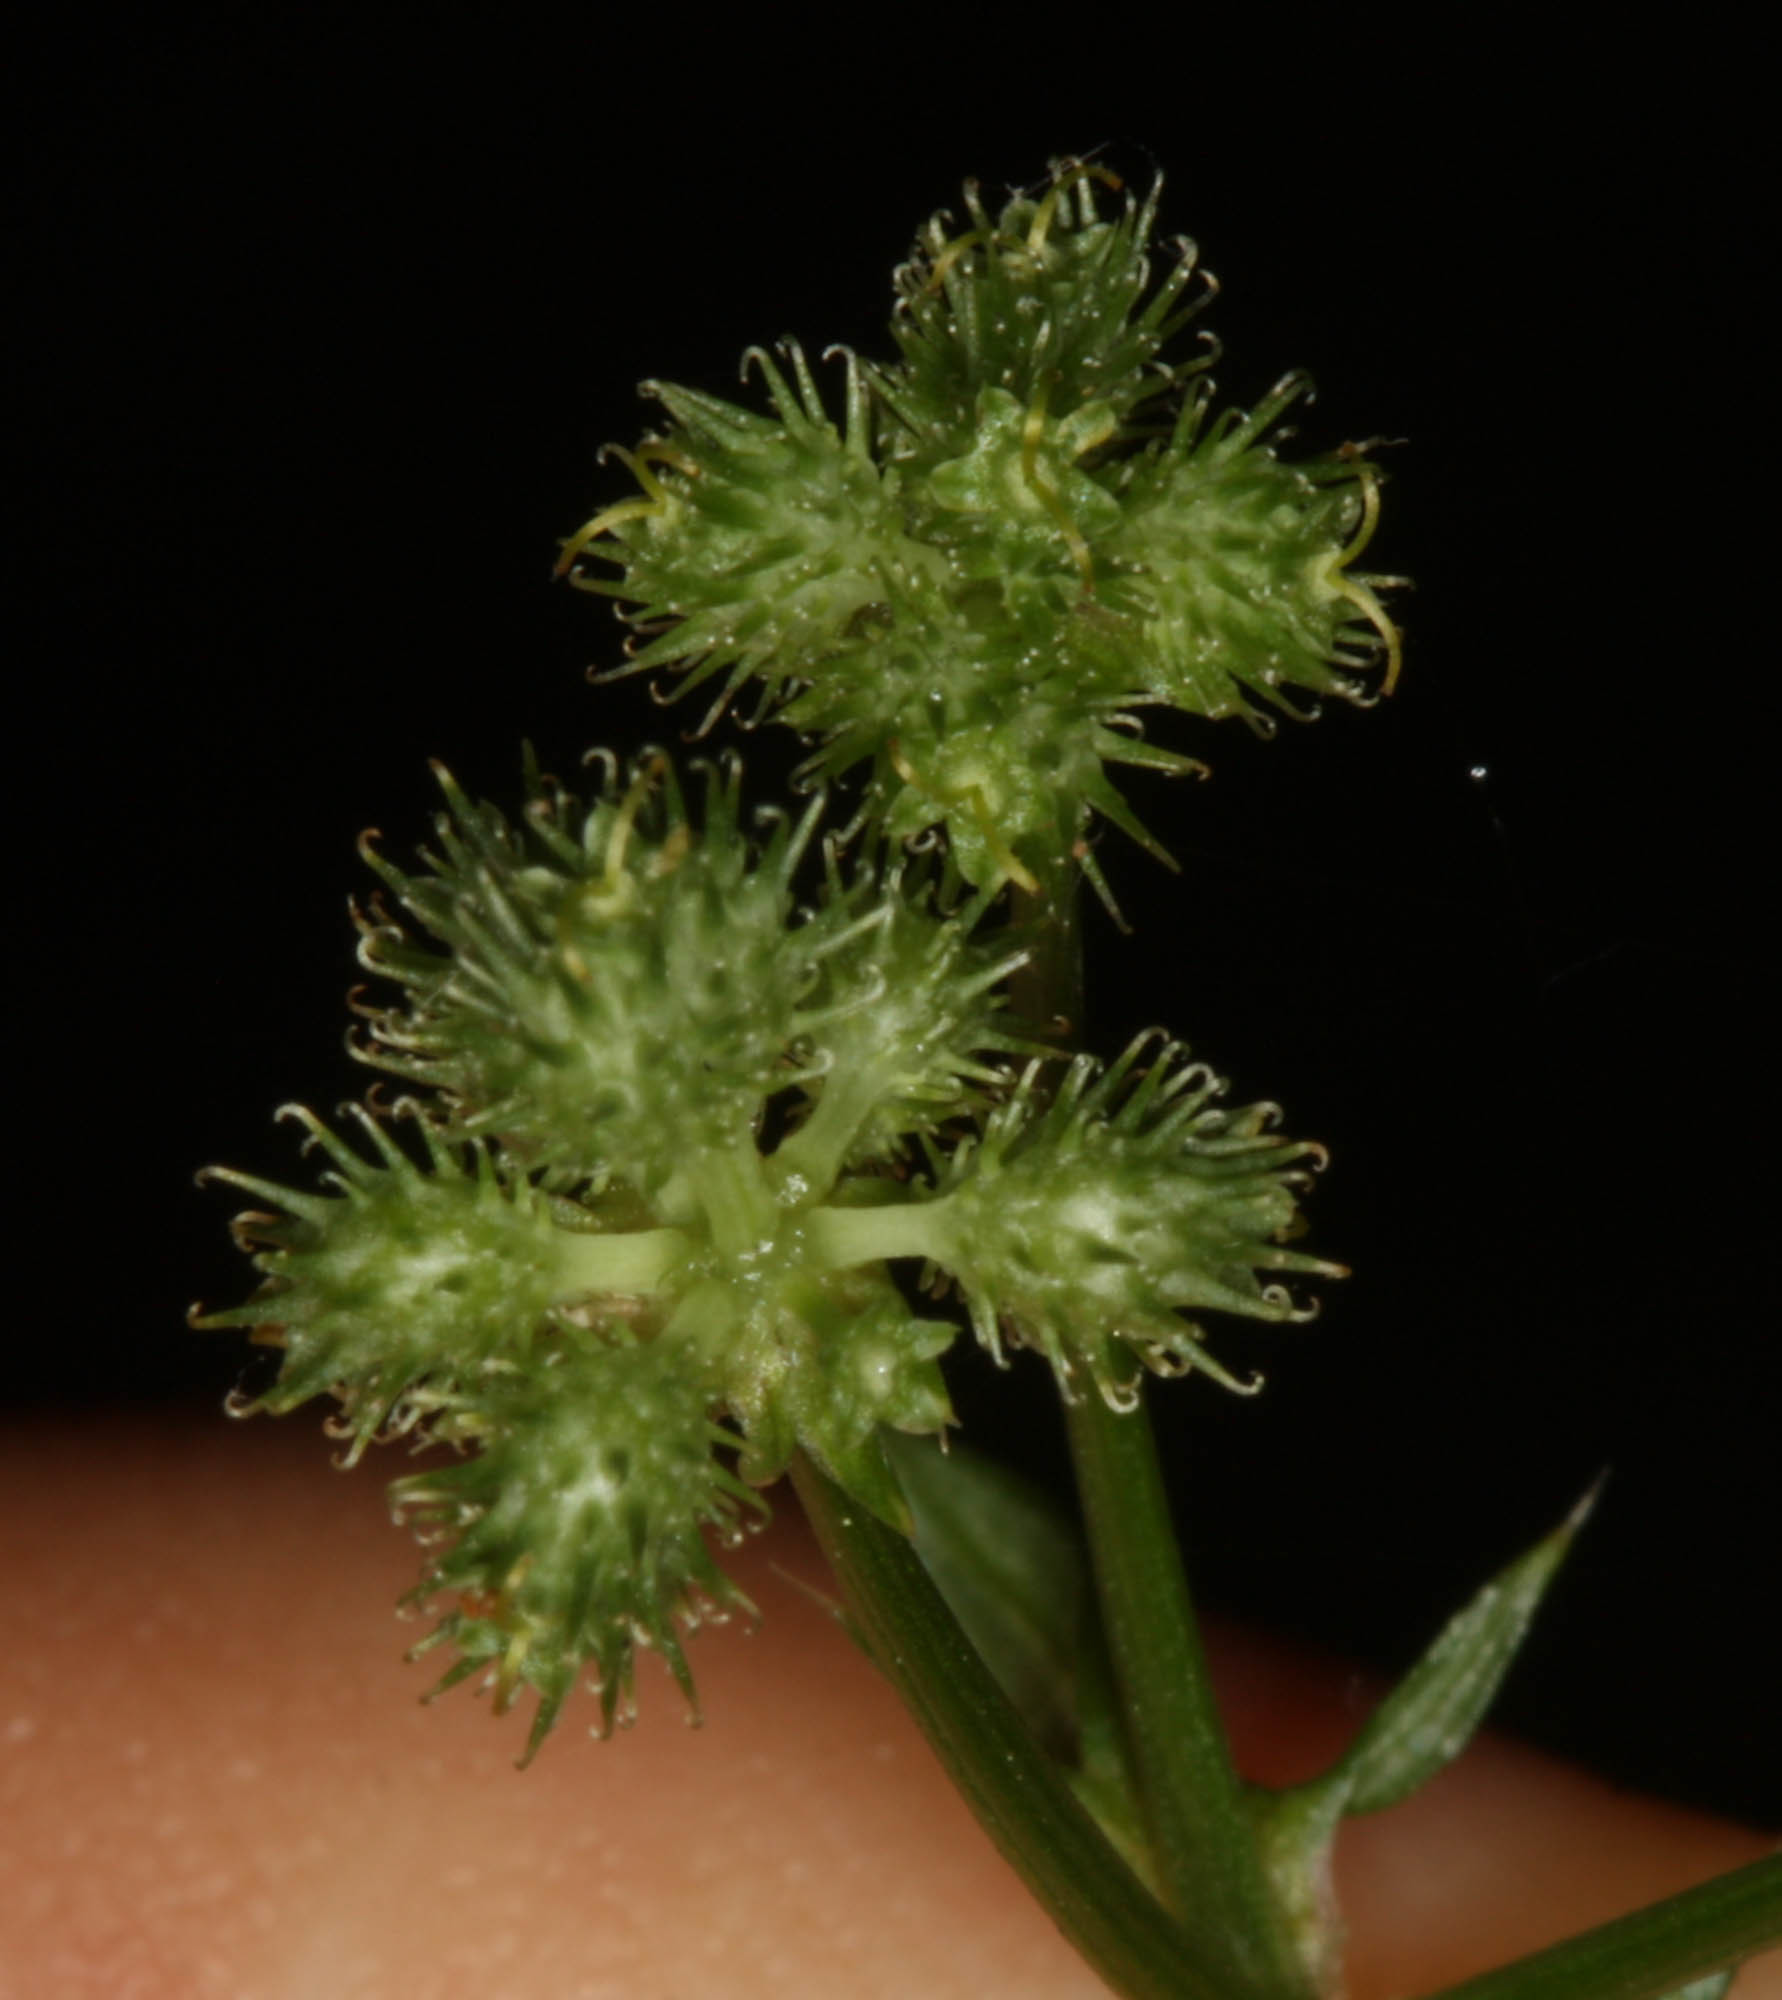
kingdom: Plantae
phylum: Tracheophyta
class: Magnoliopsida
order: Apiales
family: Apiaceae
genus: Sanicula
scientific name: Sanicula crassicaulis
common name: Western snakeroot
